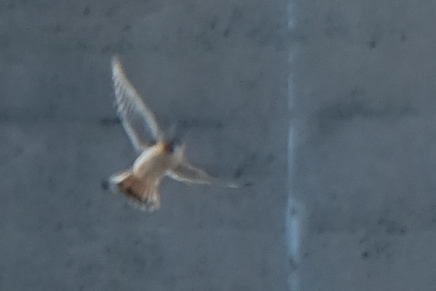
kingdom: Animalia
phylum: Chordata
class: Aves
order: Falconiformes
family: Falconidae
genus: Falco
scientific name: Falco sparverius
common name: American kestrel
